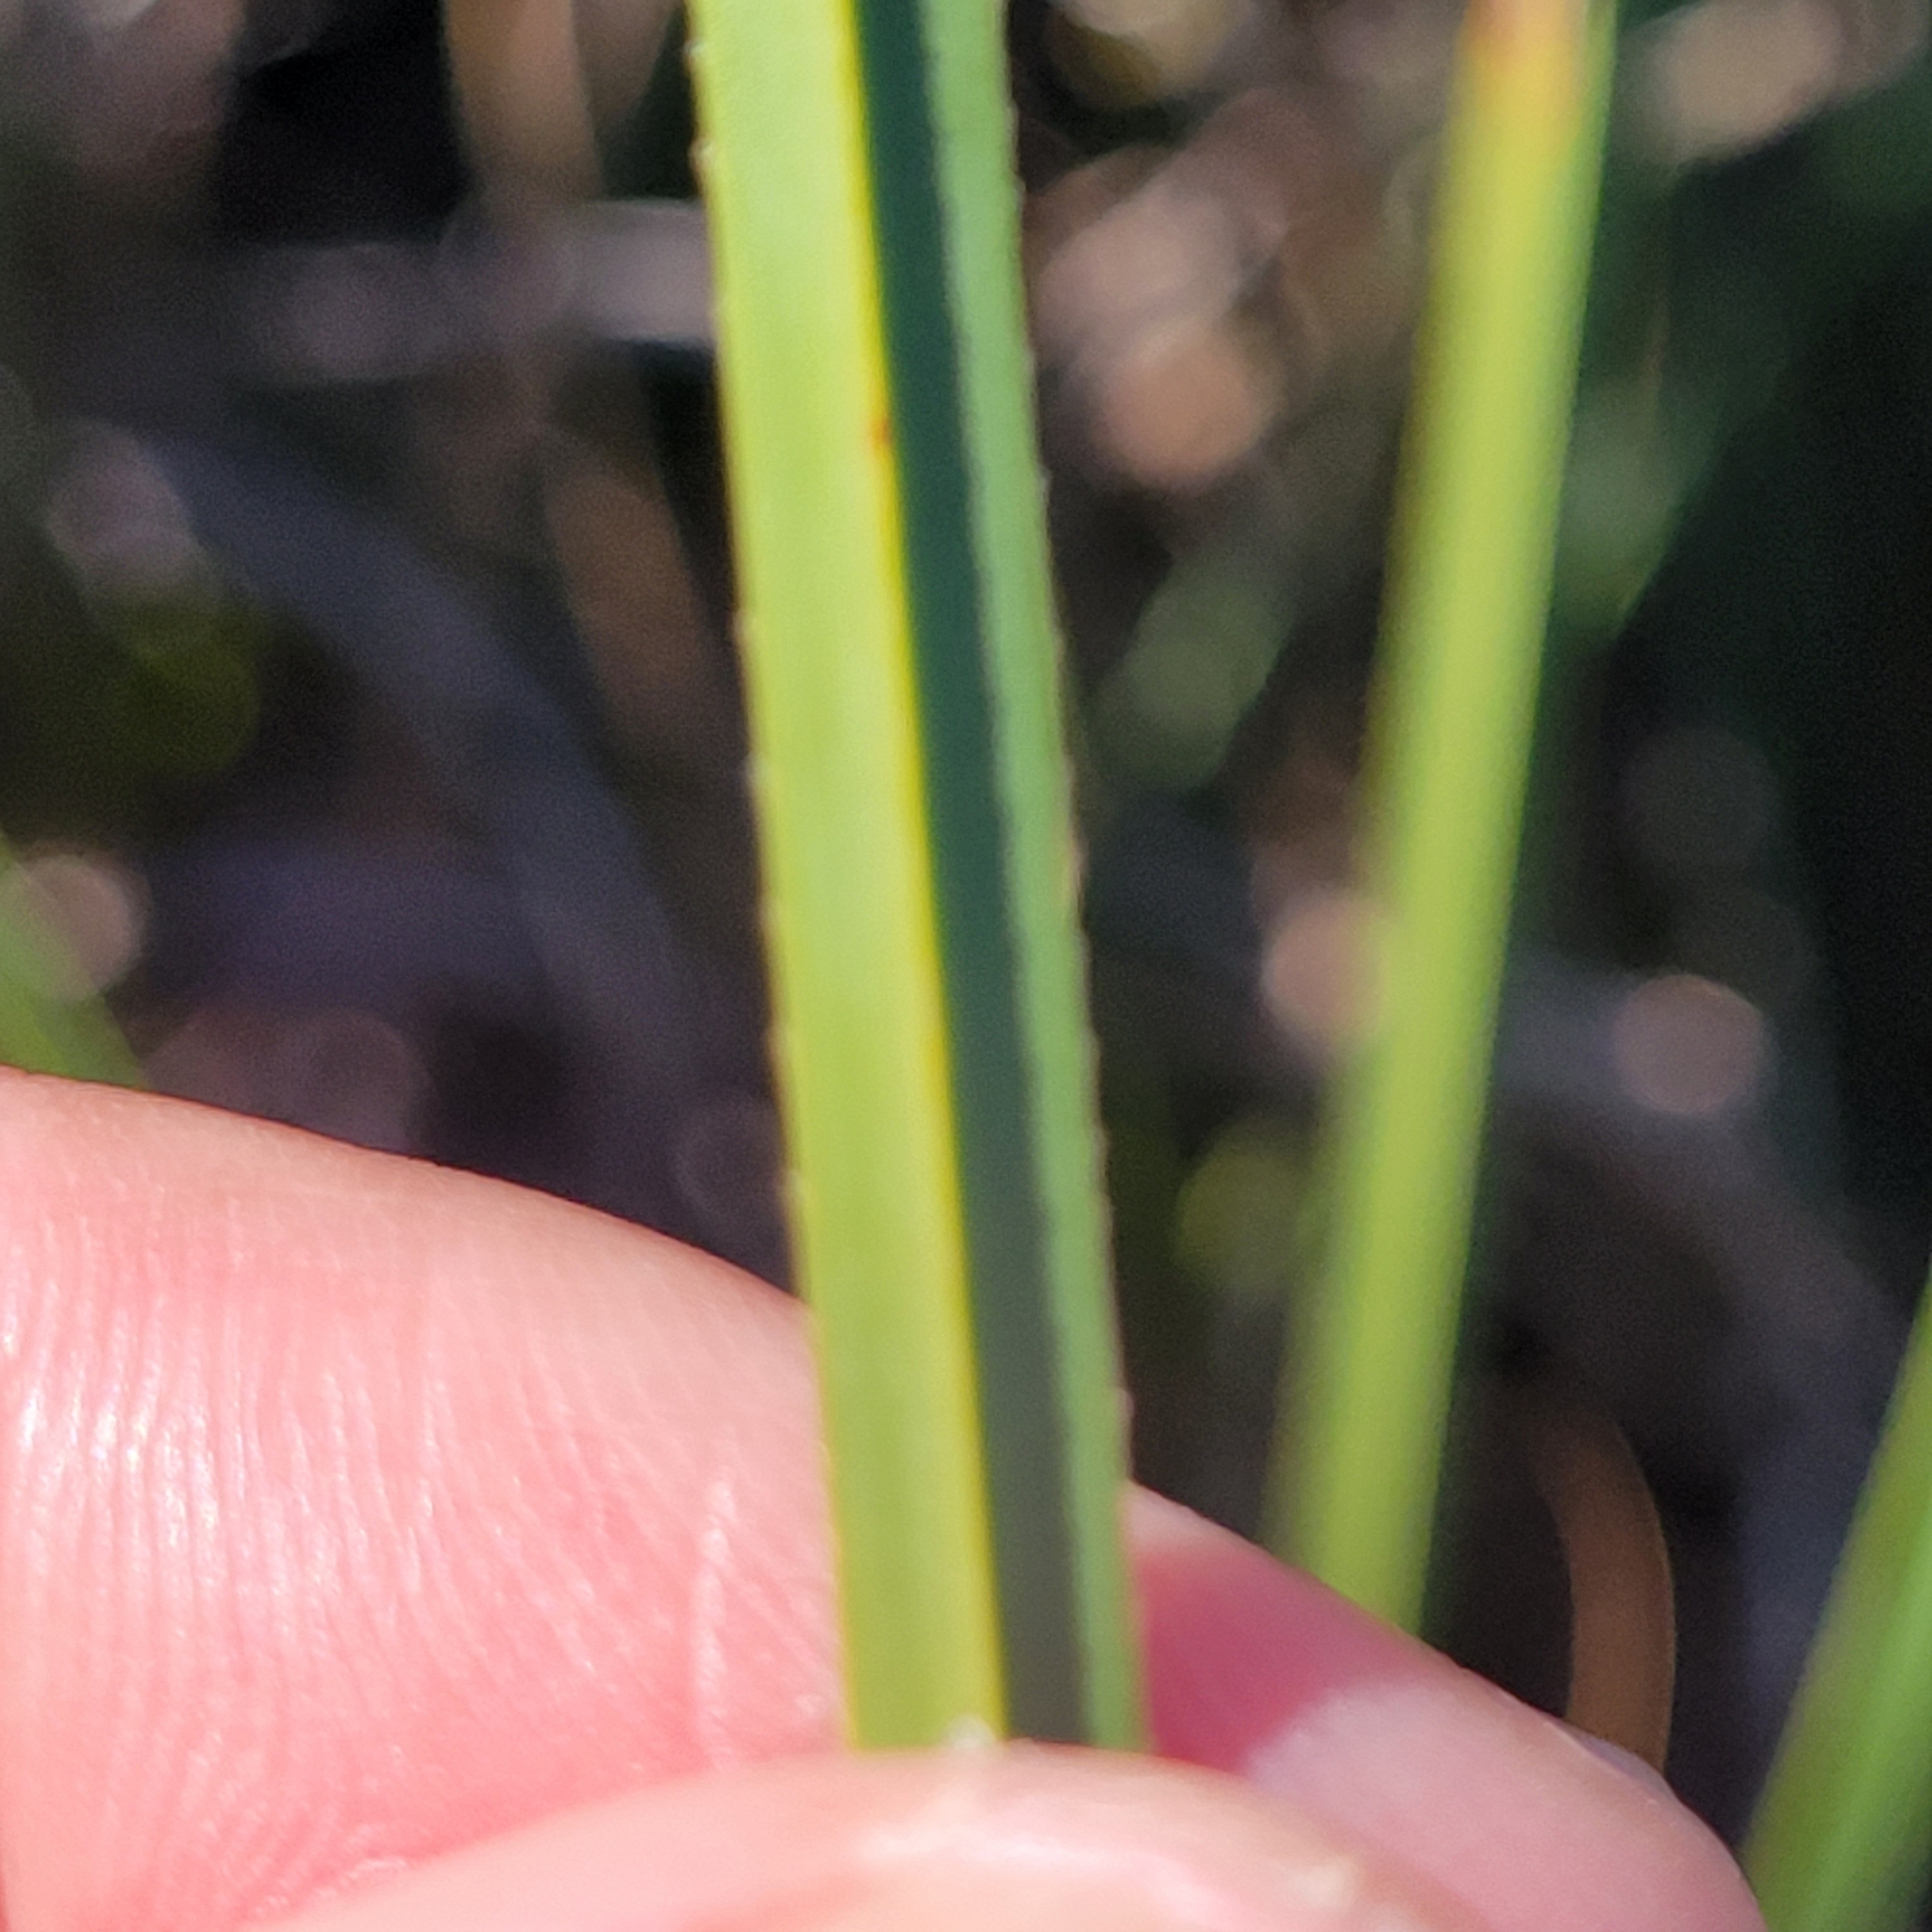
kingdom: Plantae
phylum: Tracheophyta
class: Liliopsida
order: Poales
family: Cyperaceae
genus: Cladium
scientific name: Cladium mariscus
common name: Great fen-sedge
